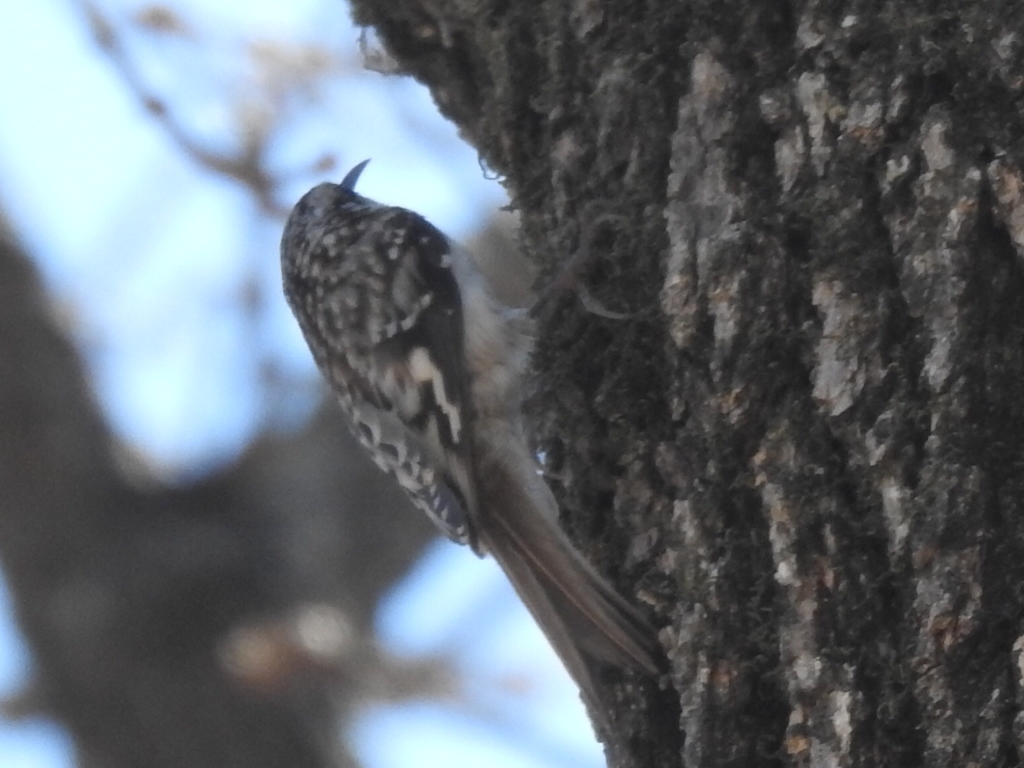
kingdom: Animalia
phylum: Chordata
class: Aves
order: Passeriformes
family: Certhiidae
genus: Certhia
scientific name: Certhia americana
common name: Brown creeper
